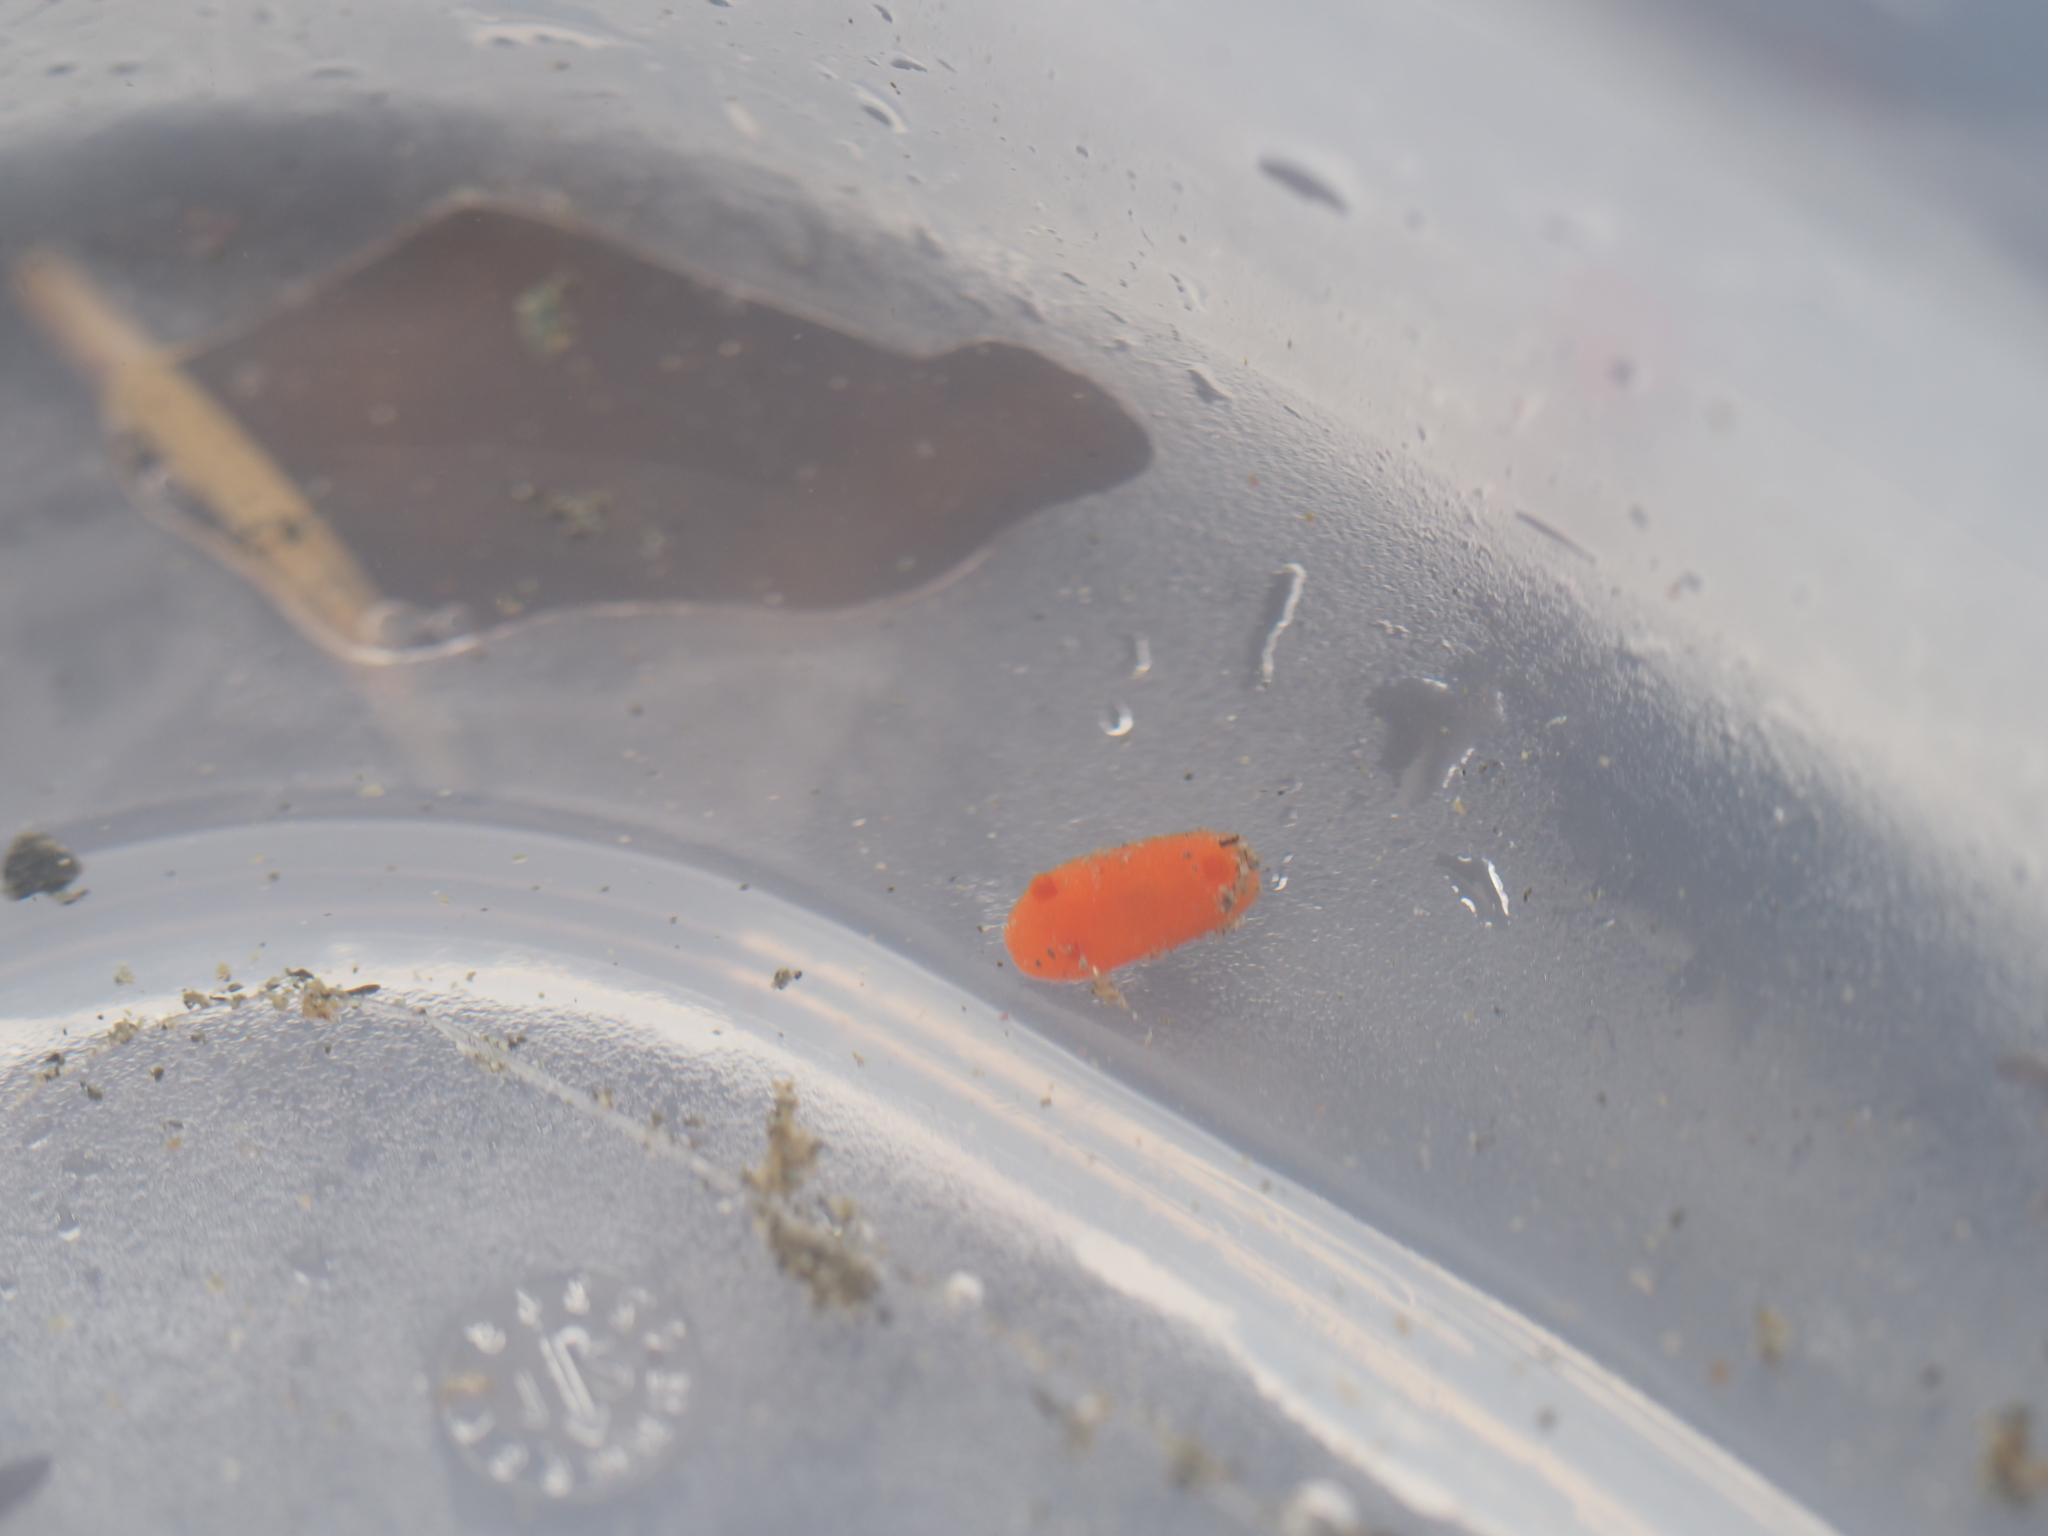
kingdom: Animalia
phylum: Mollusca
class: Gastropoda
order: Nudibranchia
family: Discodorididae
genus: Rostanga
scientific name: Rostanga pulchra
